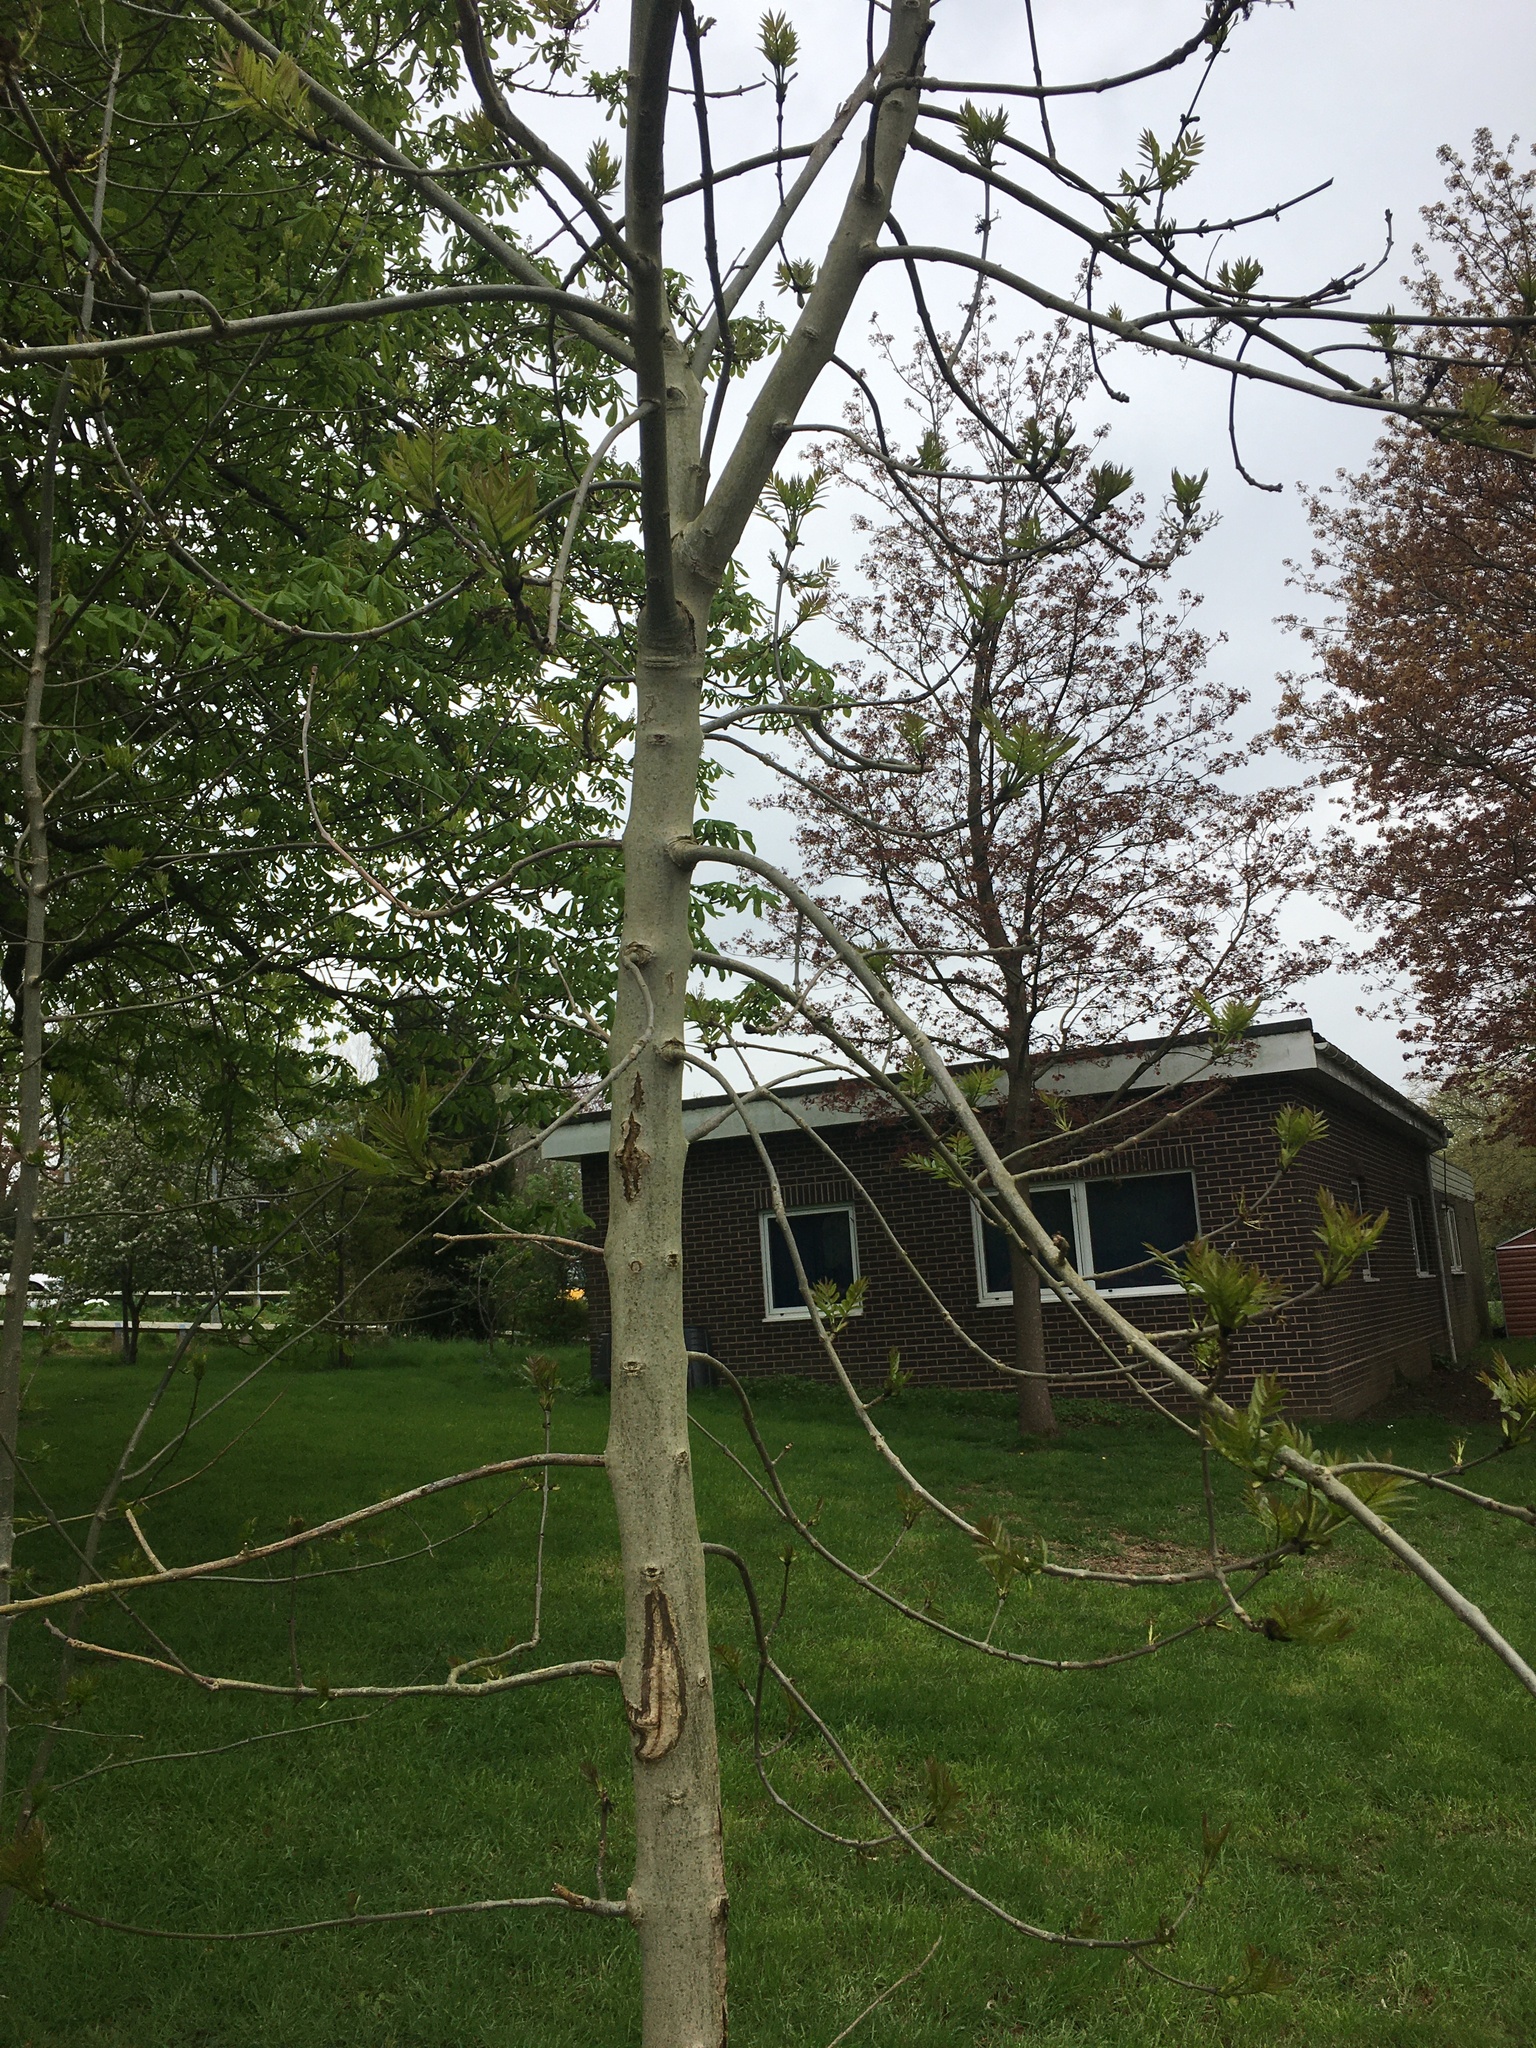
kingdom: Plantae
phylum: Tracheophyta
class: Magnoliopsida
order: Lamiales
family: Oleaceae
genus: Fraxinus
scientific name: Fraxinus excelsior
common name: European ash
